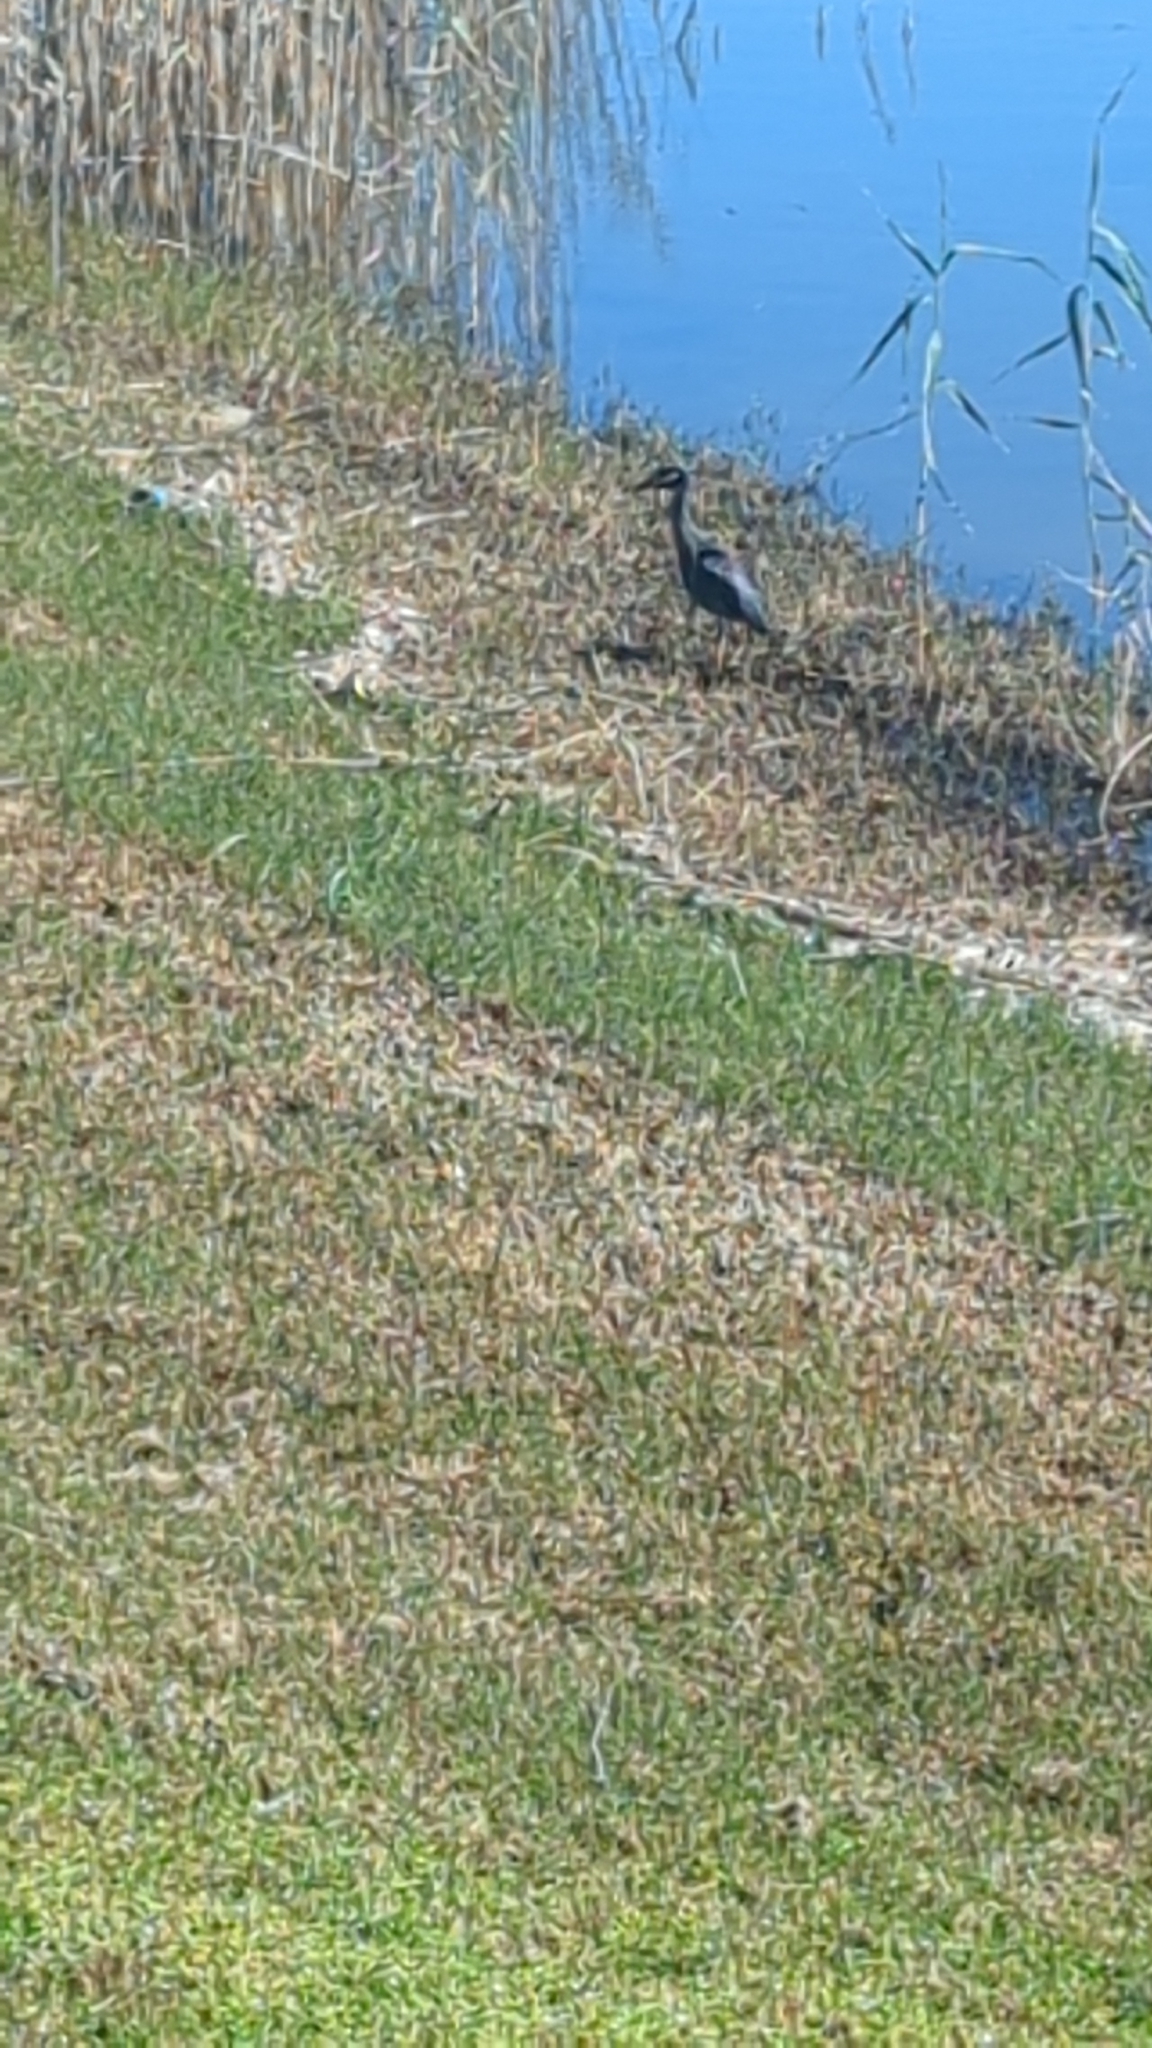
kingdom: Animalia
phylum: Chordata
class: Aves
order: Pelecaniformes
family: Ardeidae
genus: Nyctanassa
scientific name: Nyctanassa violacea
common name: Yellow-crowned night heron
